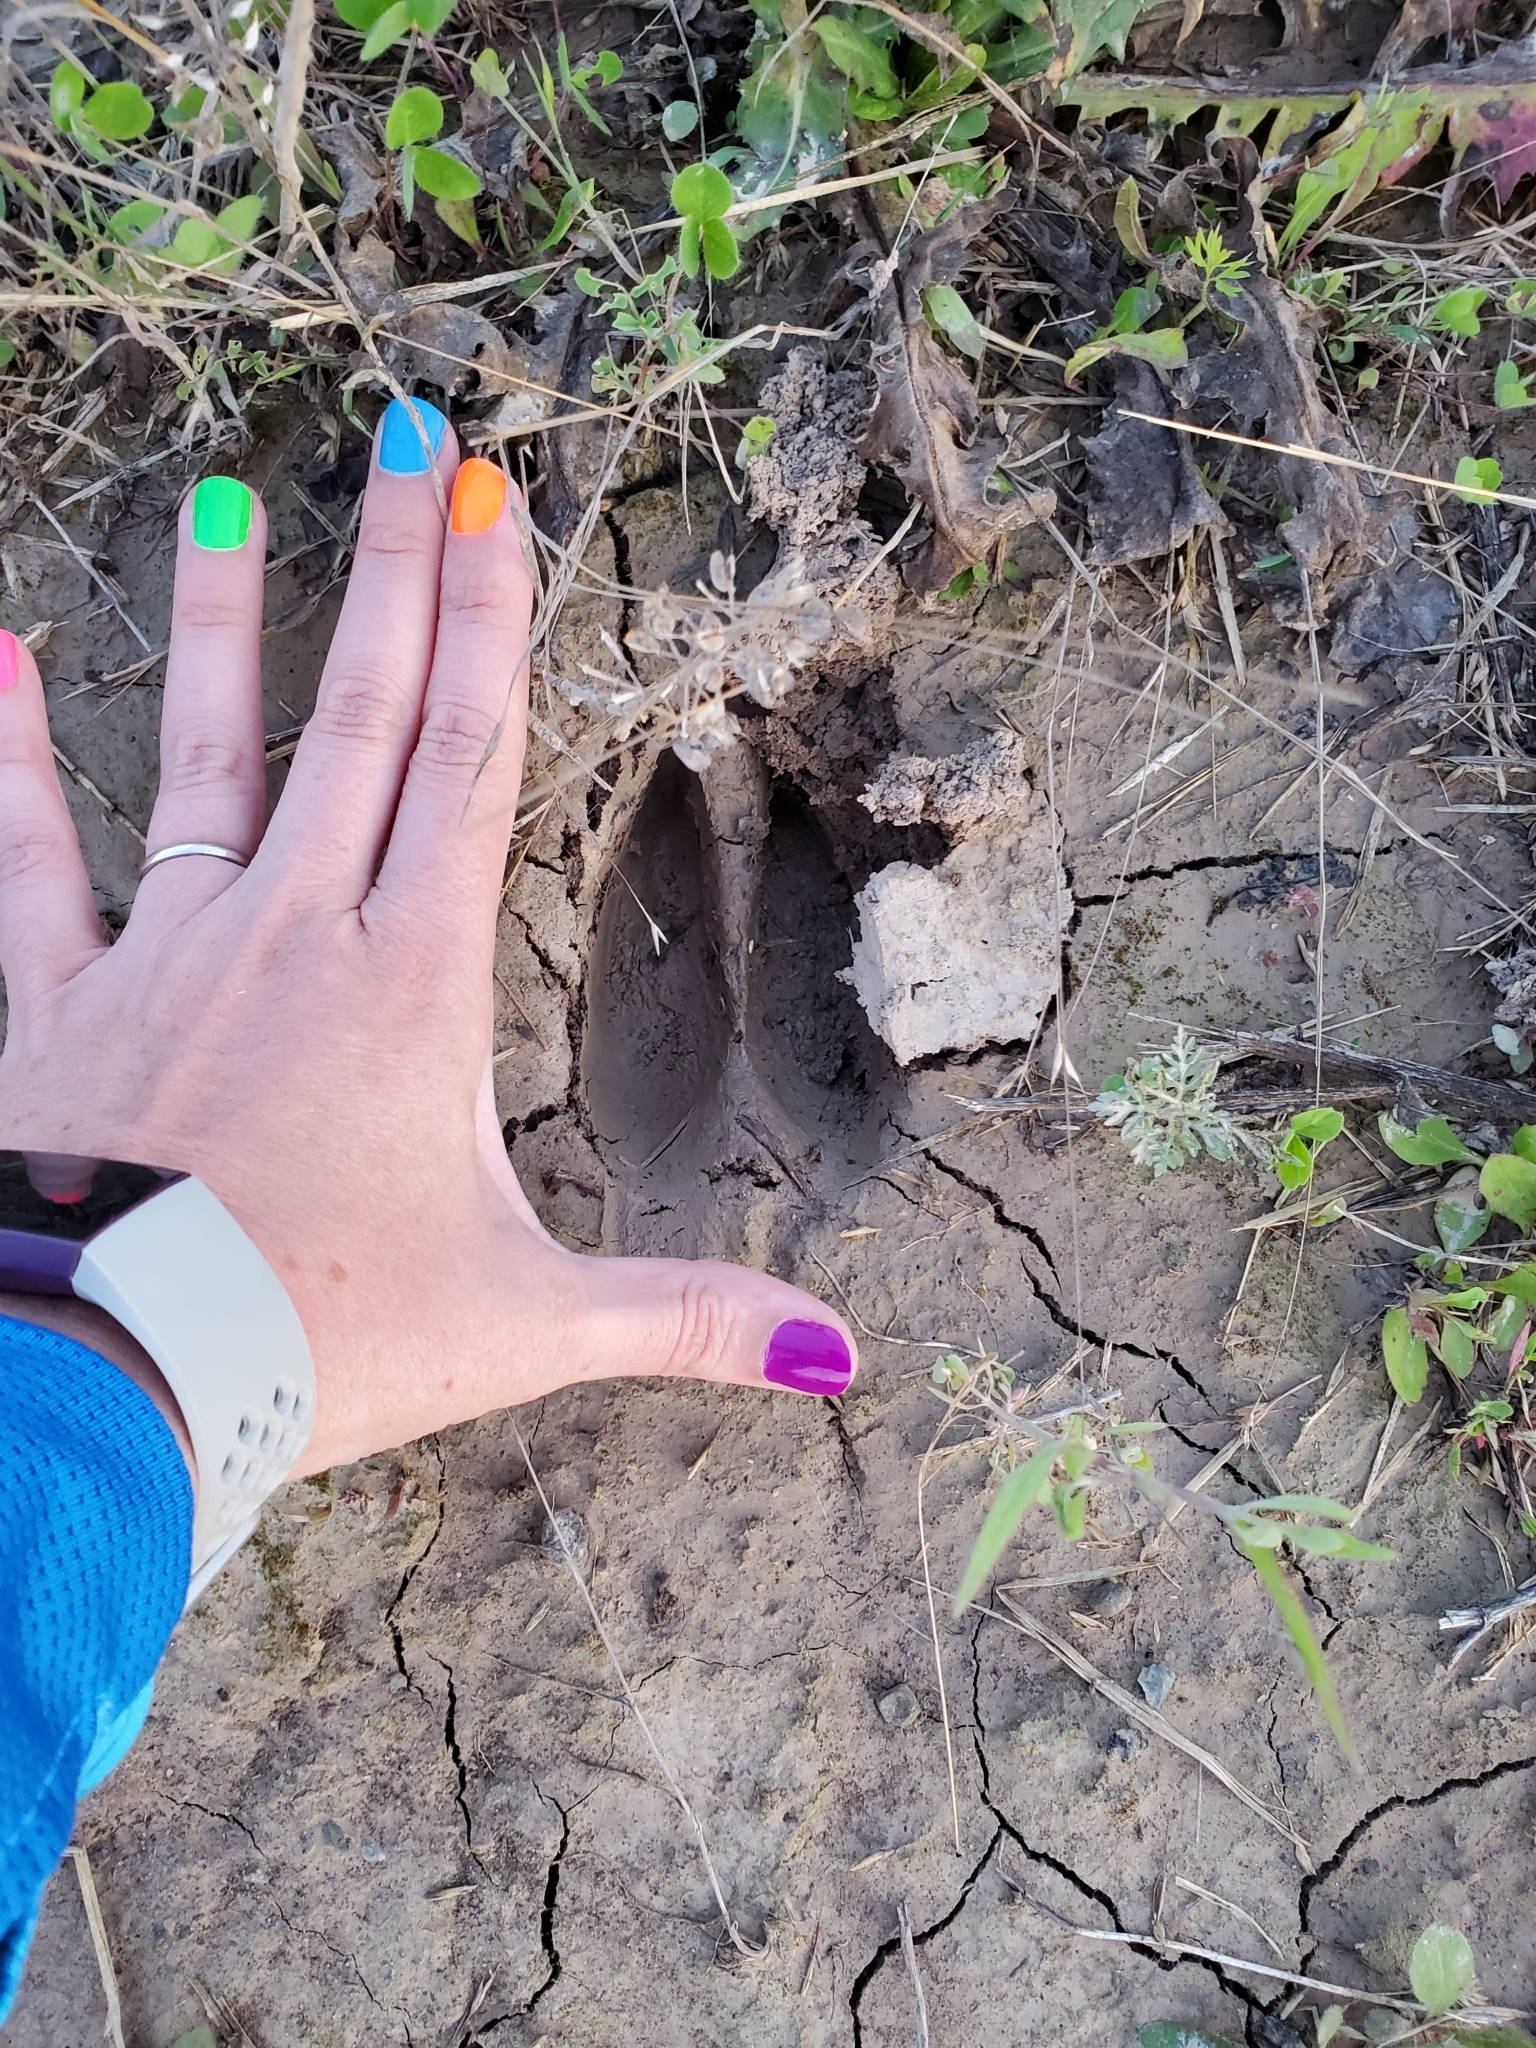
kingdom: Animalia
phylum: Chordata
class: Mammalia
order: Artiodactyla
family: Cervidae
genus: Odocoileus
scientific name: Odocoileus virginianus
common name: White-tailed deer
